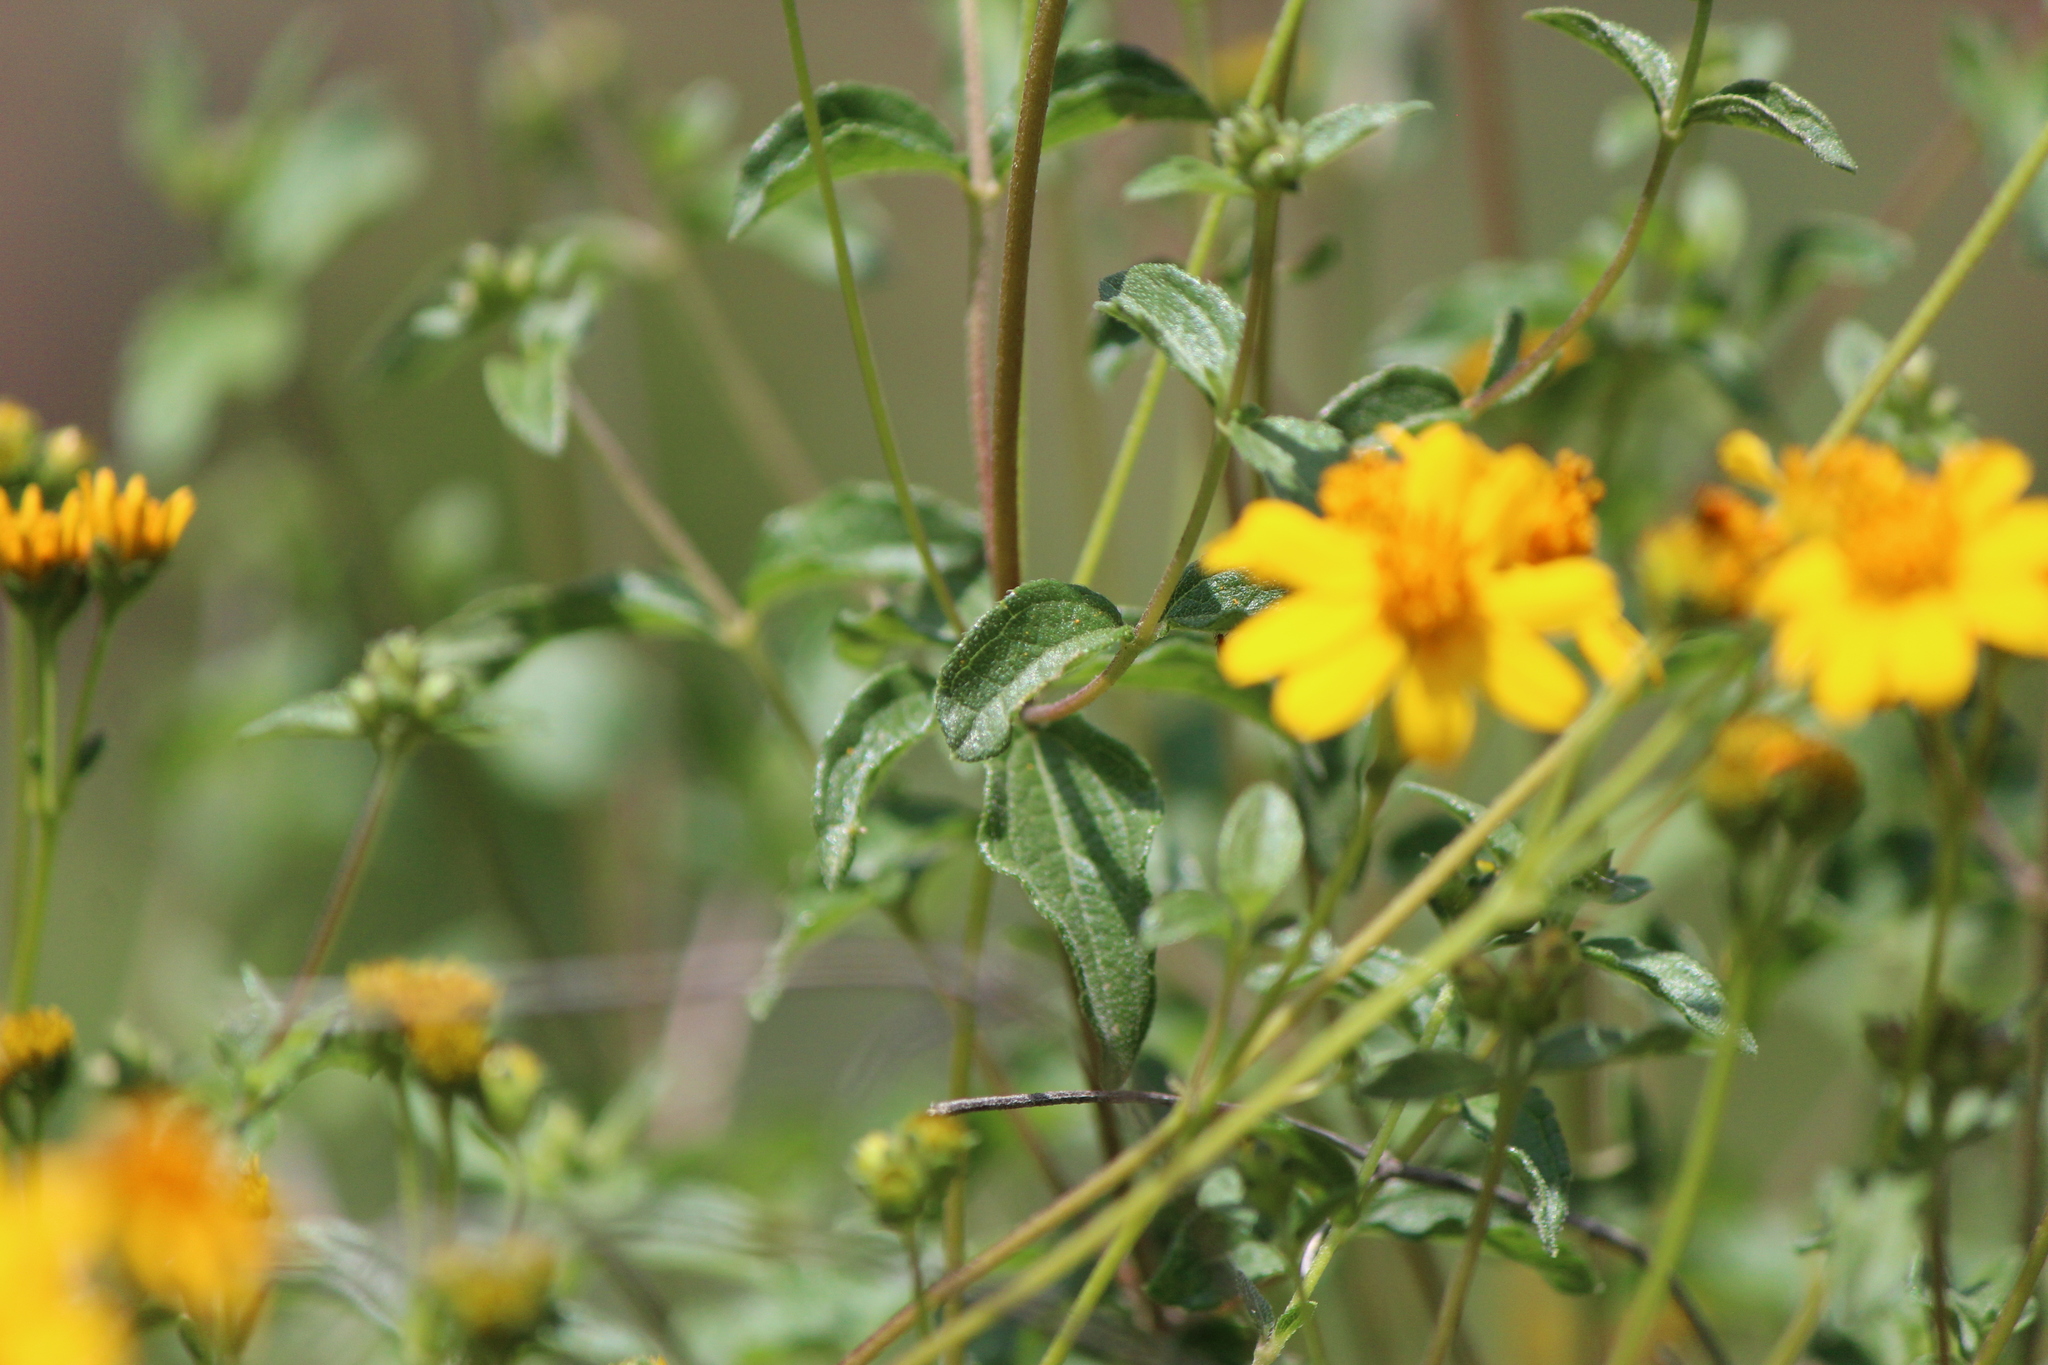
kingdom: Plantae
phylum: Tracheophyta
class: Magnoliopsida
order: Asterales
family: Asteraceae
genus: Perymenium
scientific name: Perymenium mendezii
